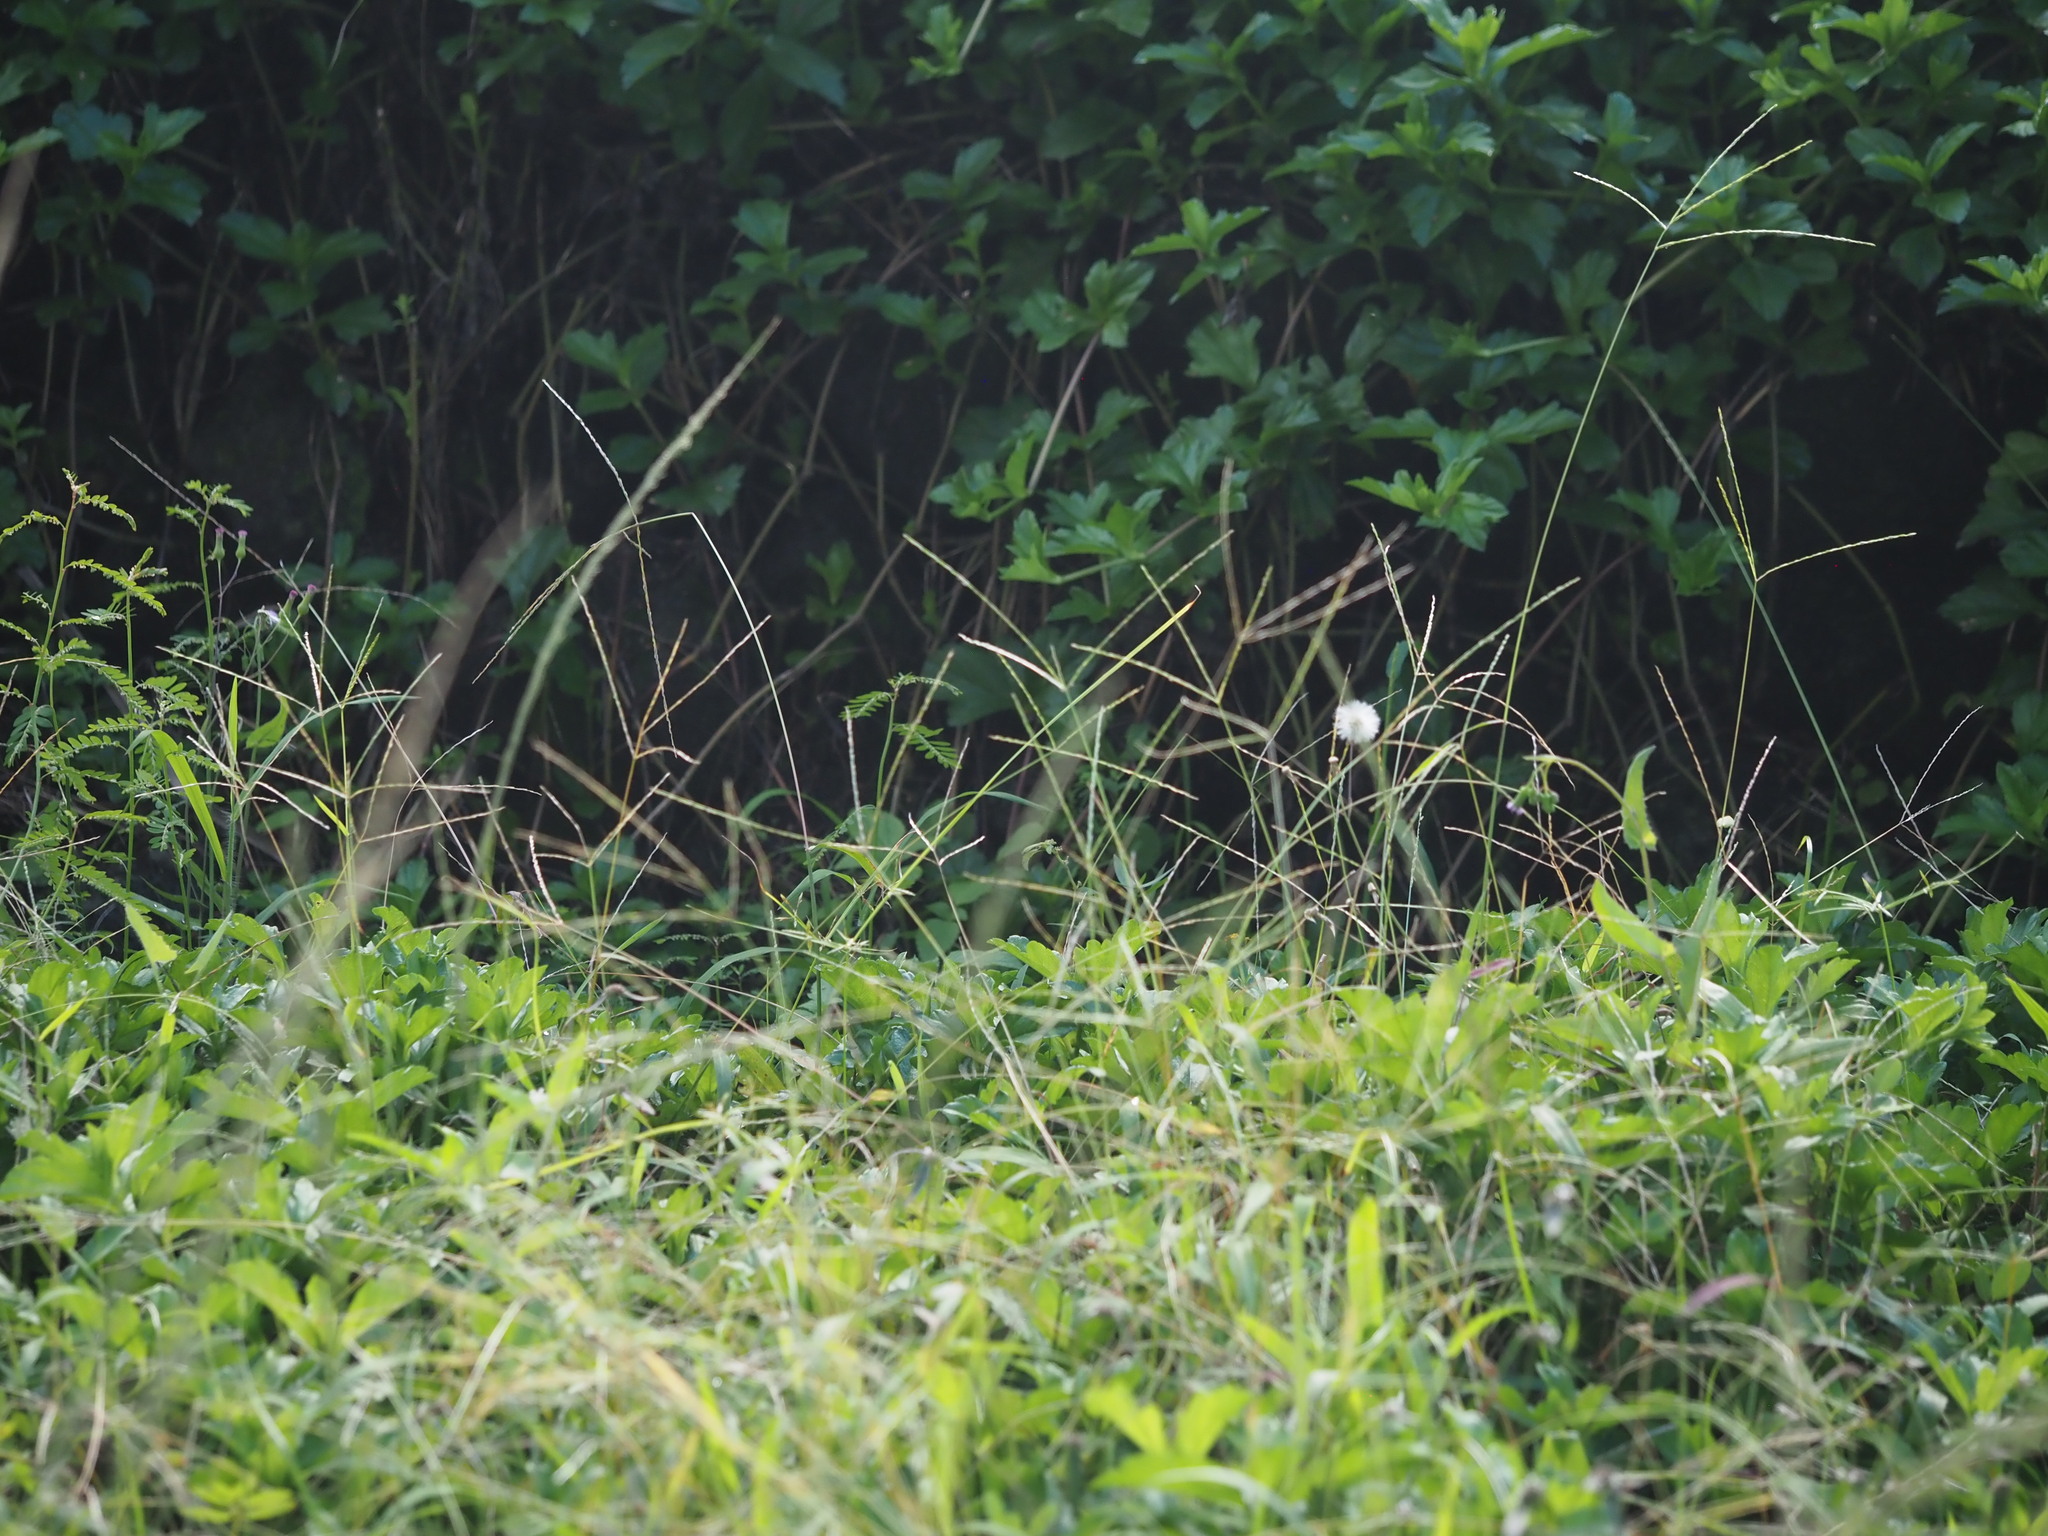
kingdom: Plantae
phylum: Tracheophyta
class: Liliopsida
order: Poales
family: Poaceae
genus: Digitaria
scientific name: Digitaria ciliaris
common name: Tropical finger-grass
